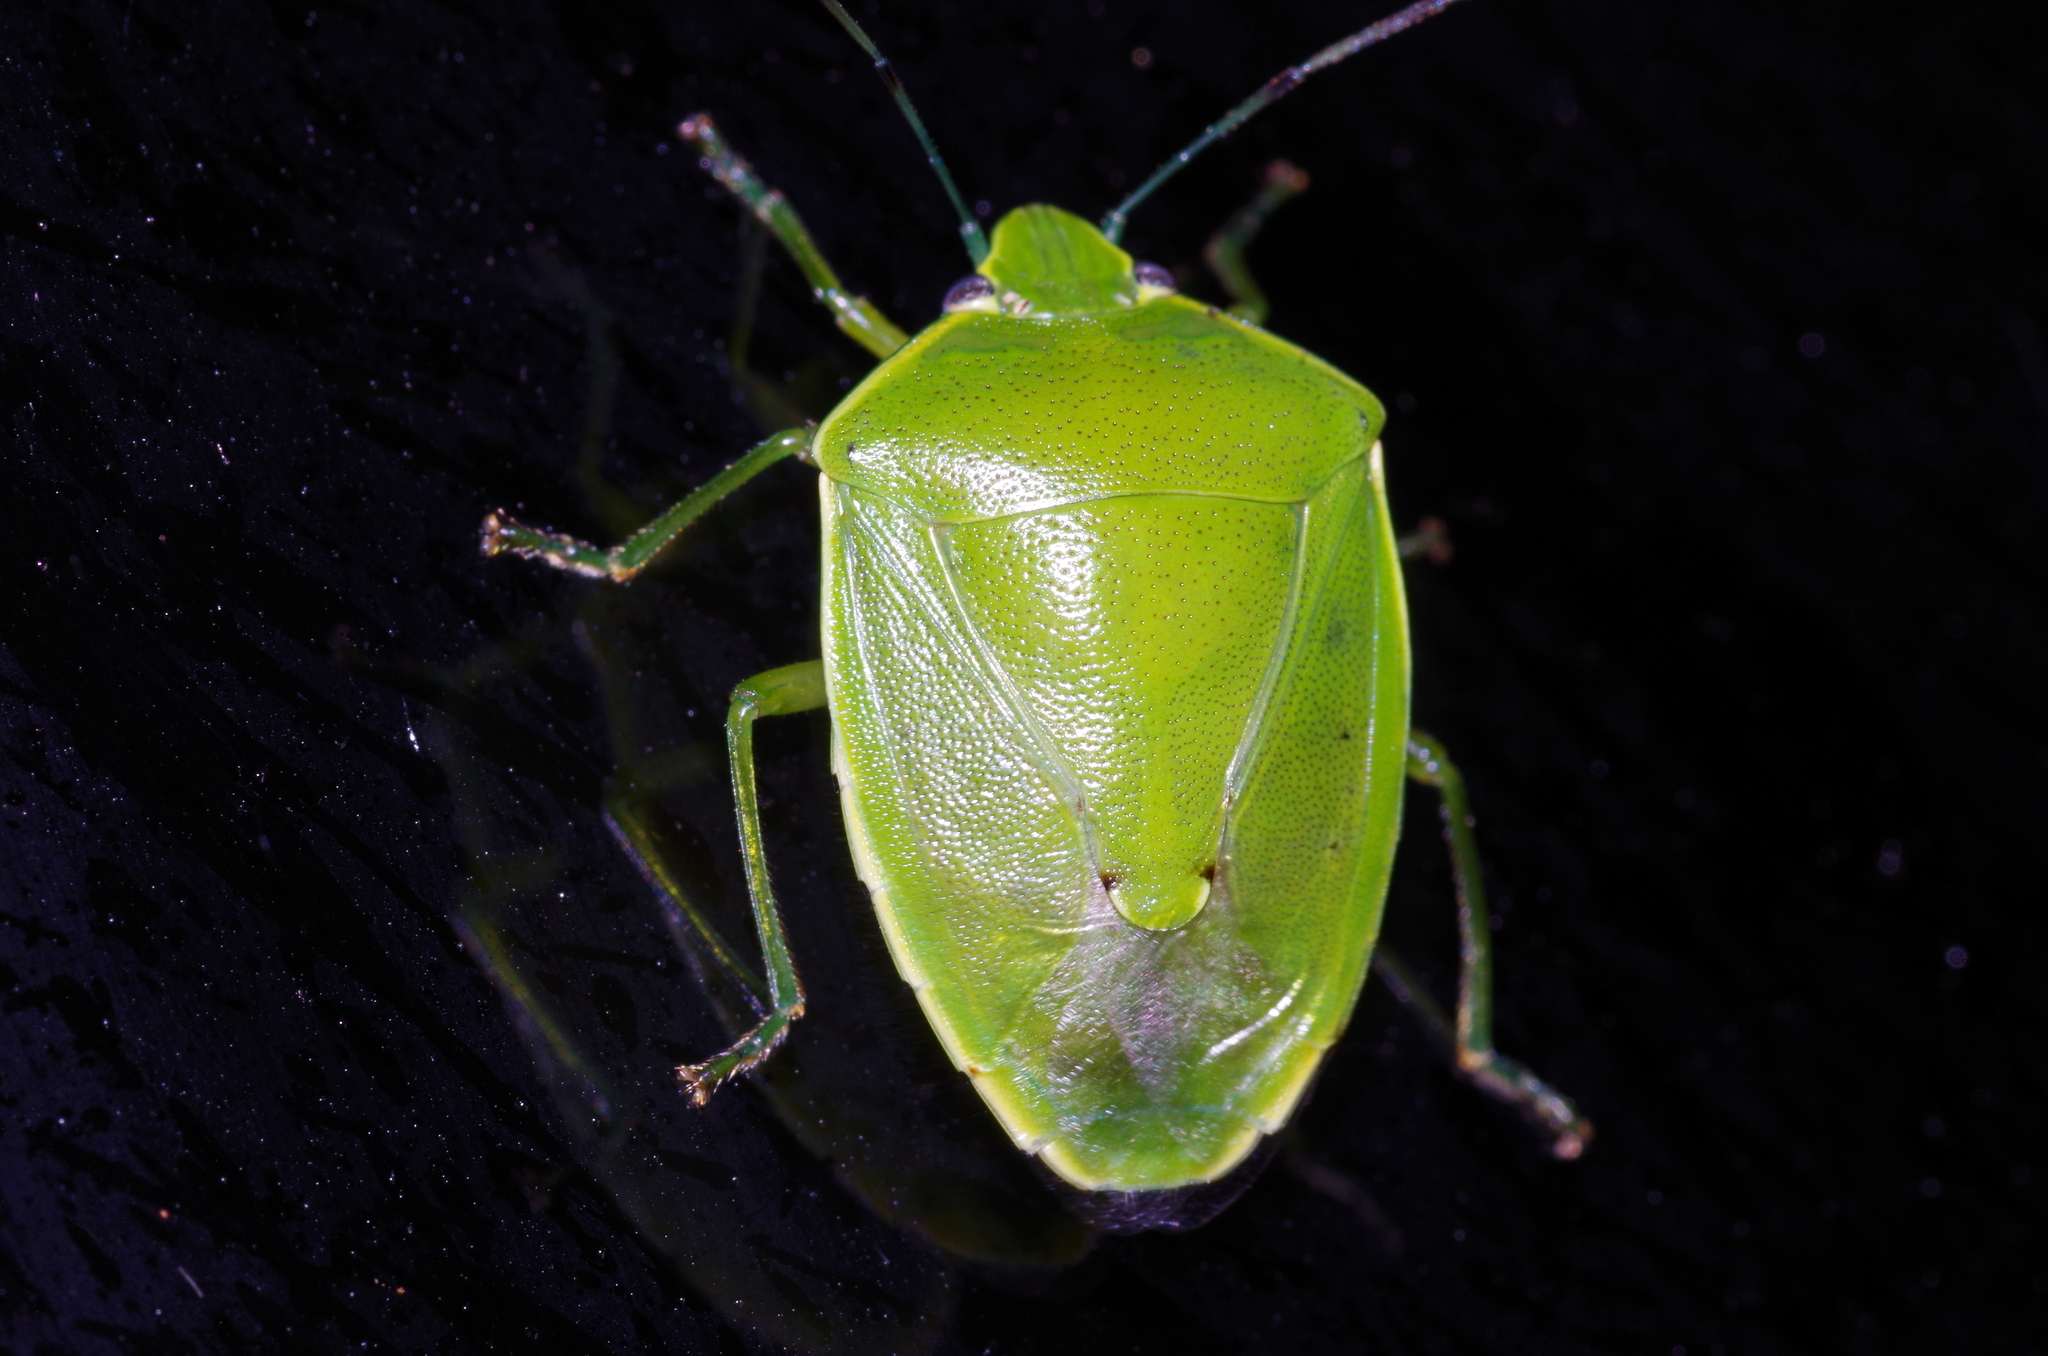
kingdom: Animalia
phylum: Arthropoda
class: Insecta
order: Hemiptera
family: Pentatomidae
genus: Glaucias
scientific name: Glaucias subpunctatus
